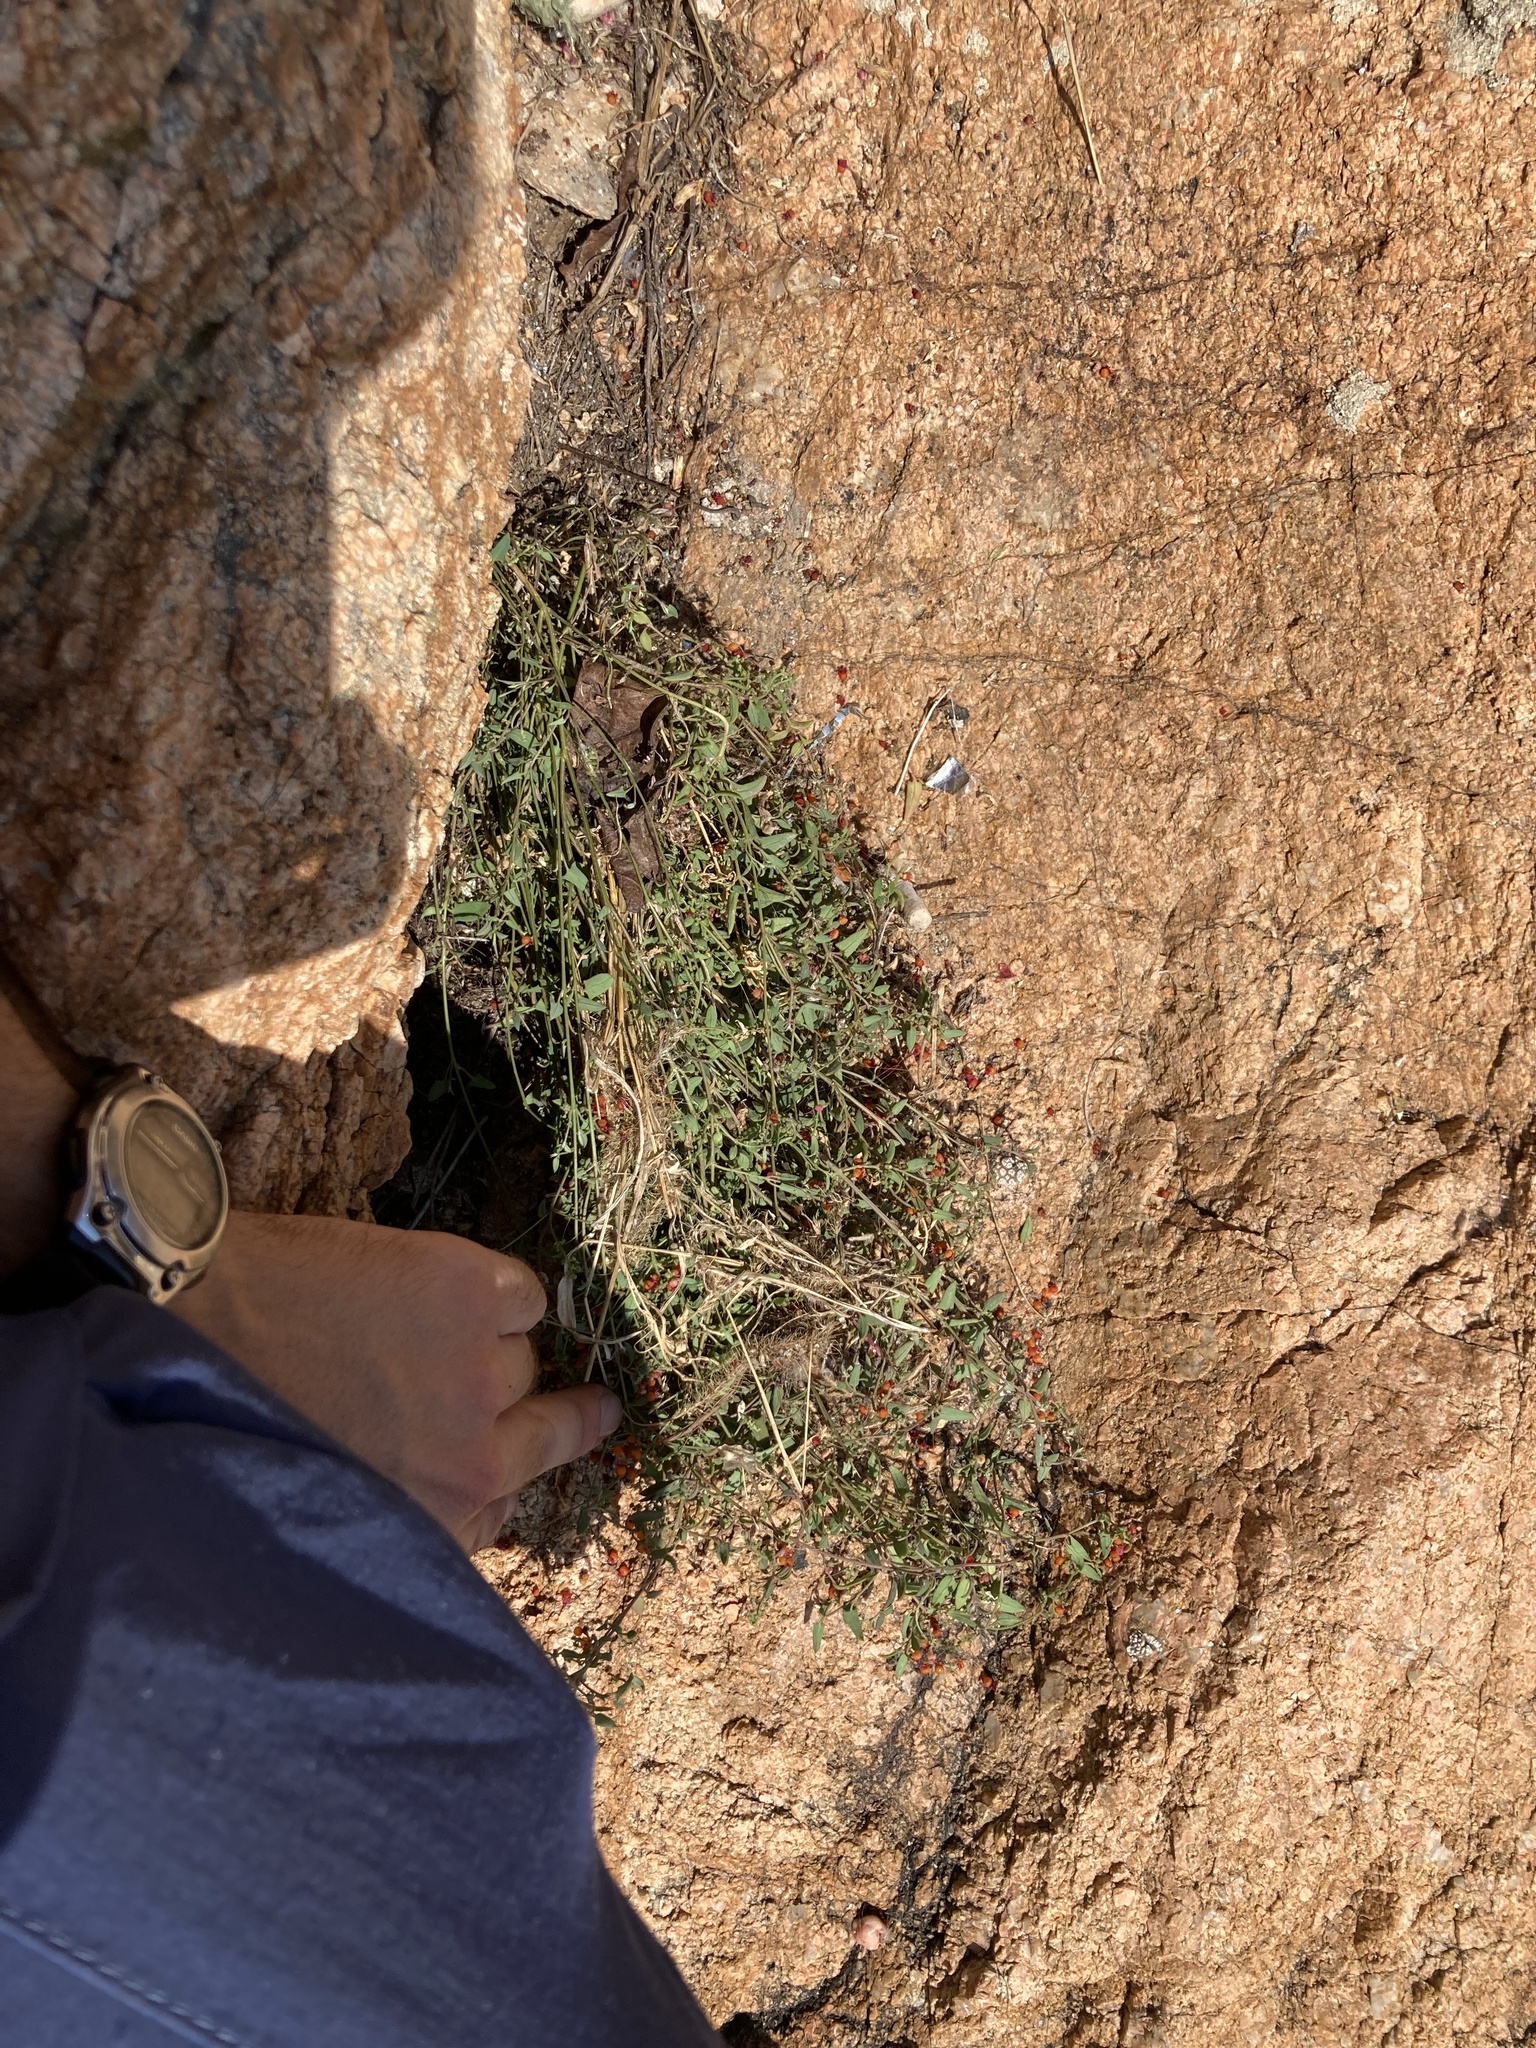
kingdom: Plantae
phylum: Tracheophyta
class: Magnoliopsida
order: Caryophyllales
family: Amaranthaceae
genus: Chenopodium
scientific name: Chenopodium nutans
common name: Climbing-saltbush
